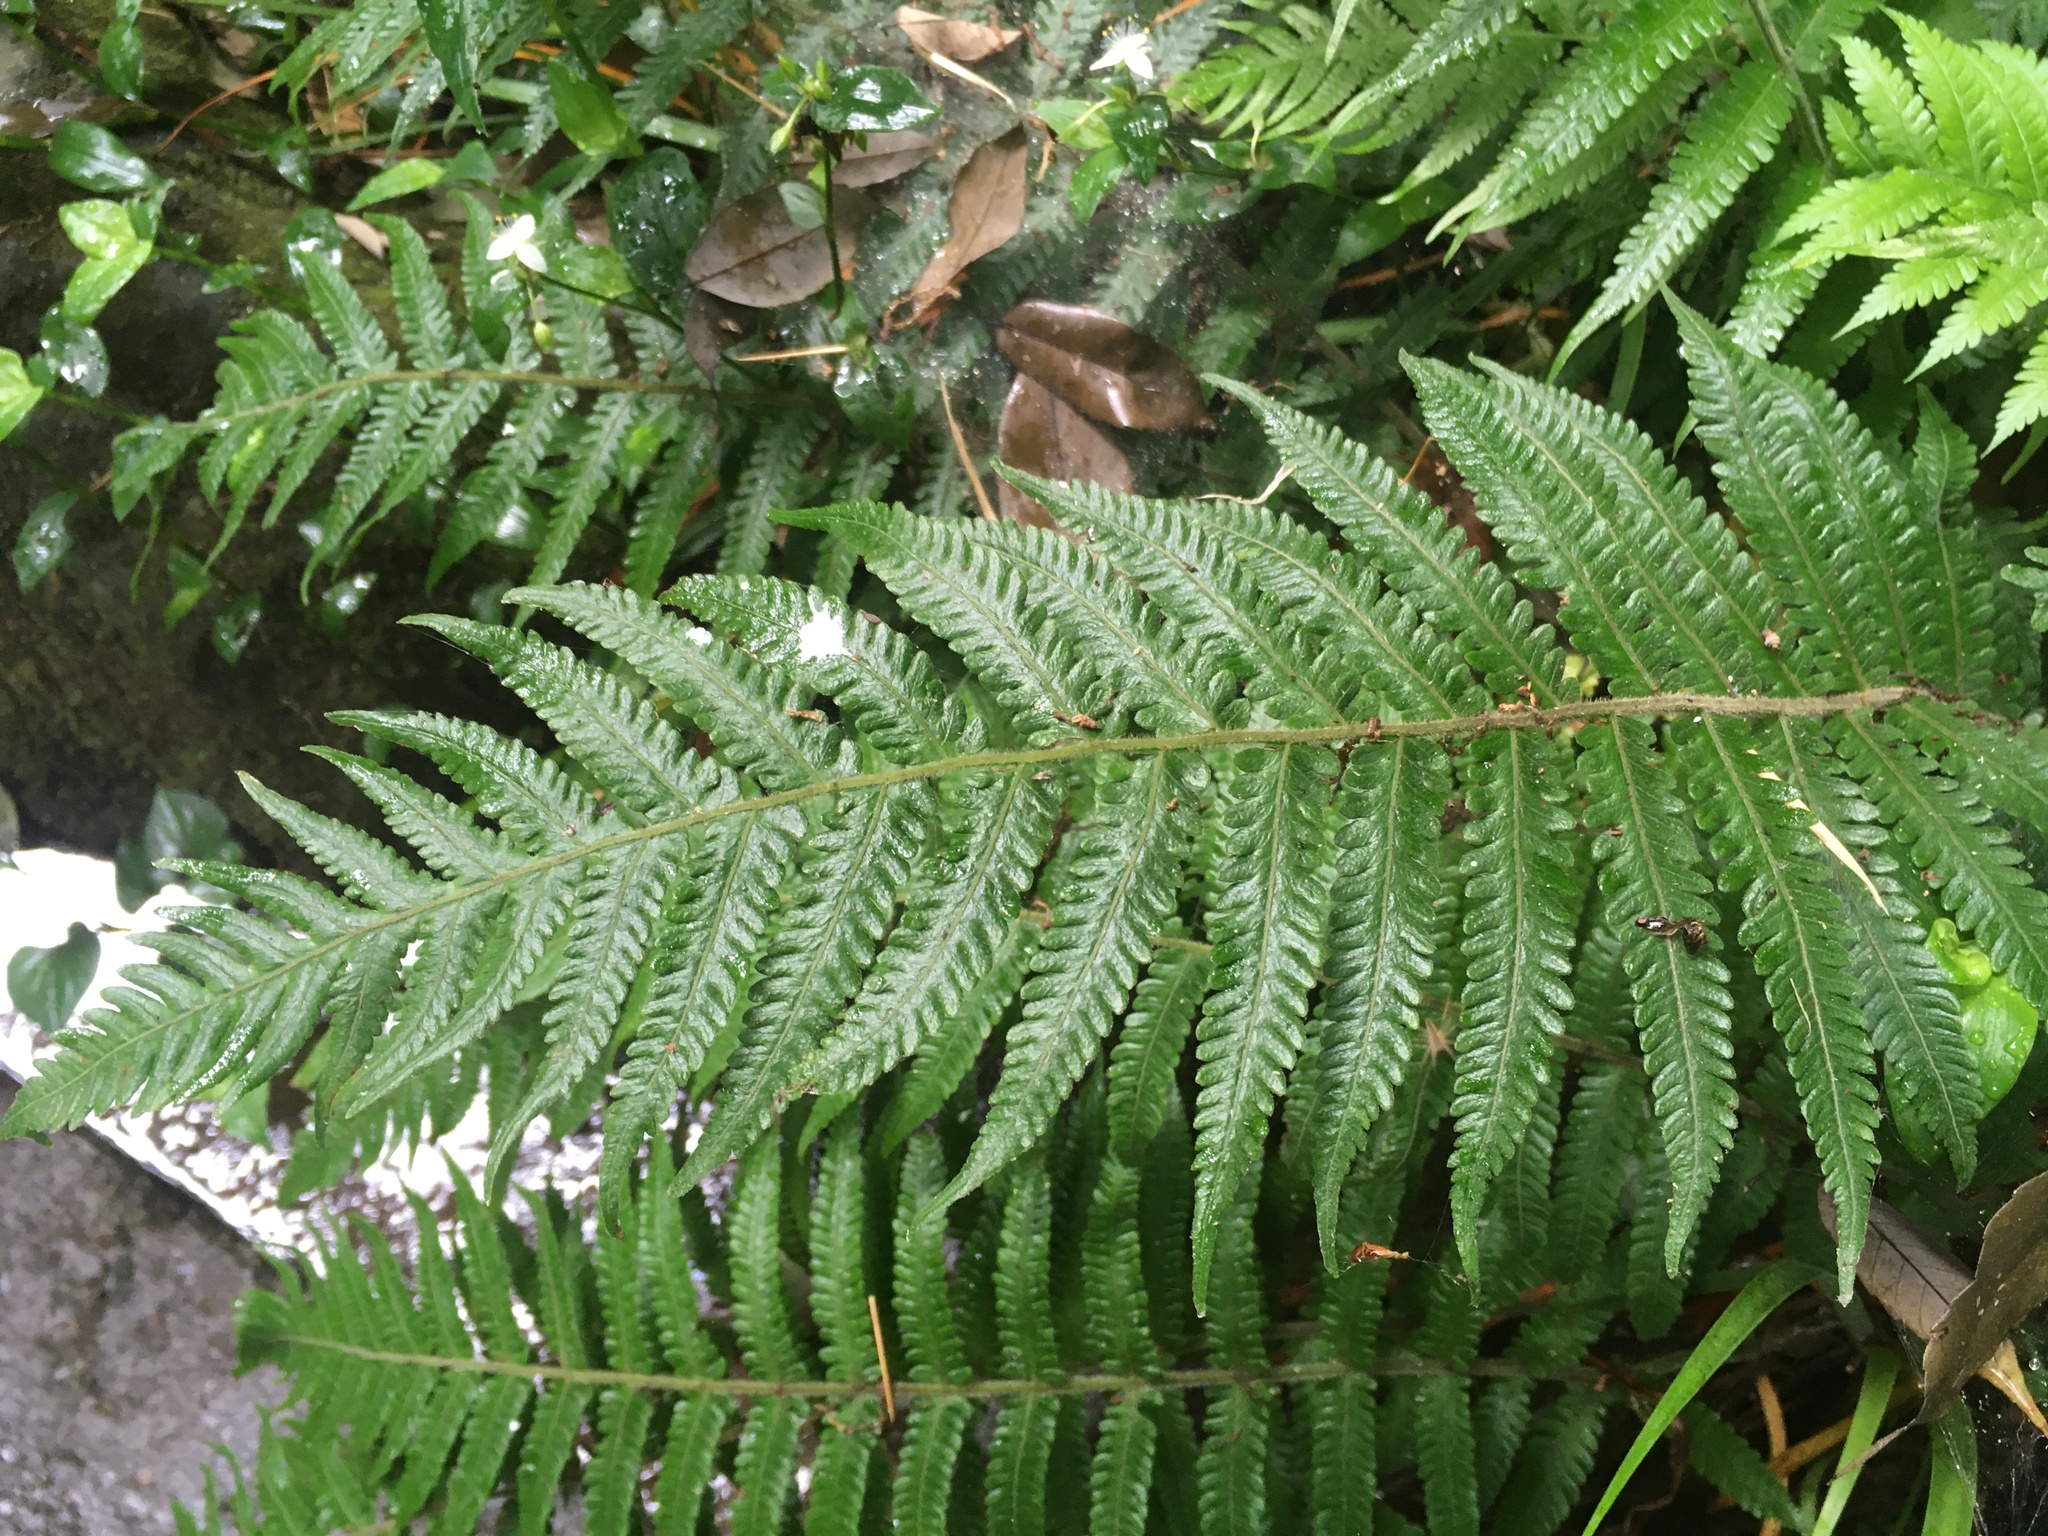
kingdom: Plantae
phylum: Tracheophyta
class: Polypodiopsida
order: Polypodiales
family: Thelypteridaceae
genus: Leptogramma
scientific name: Leptogramma mollissima
